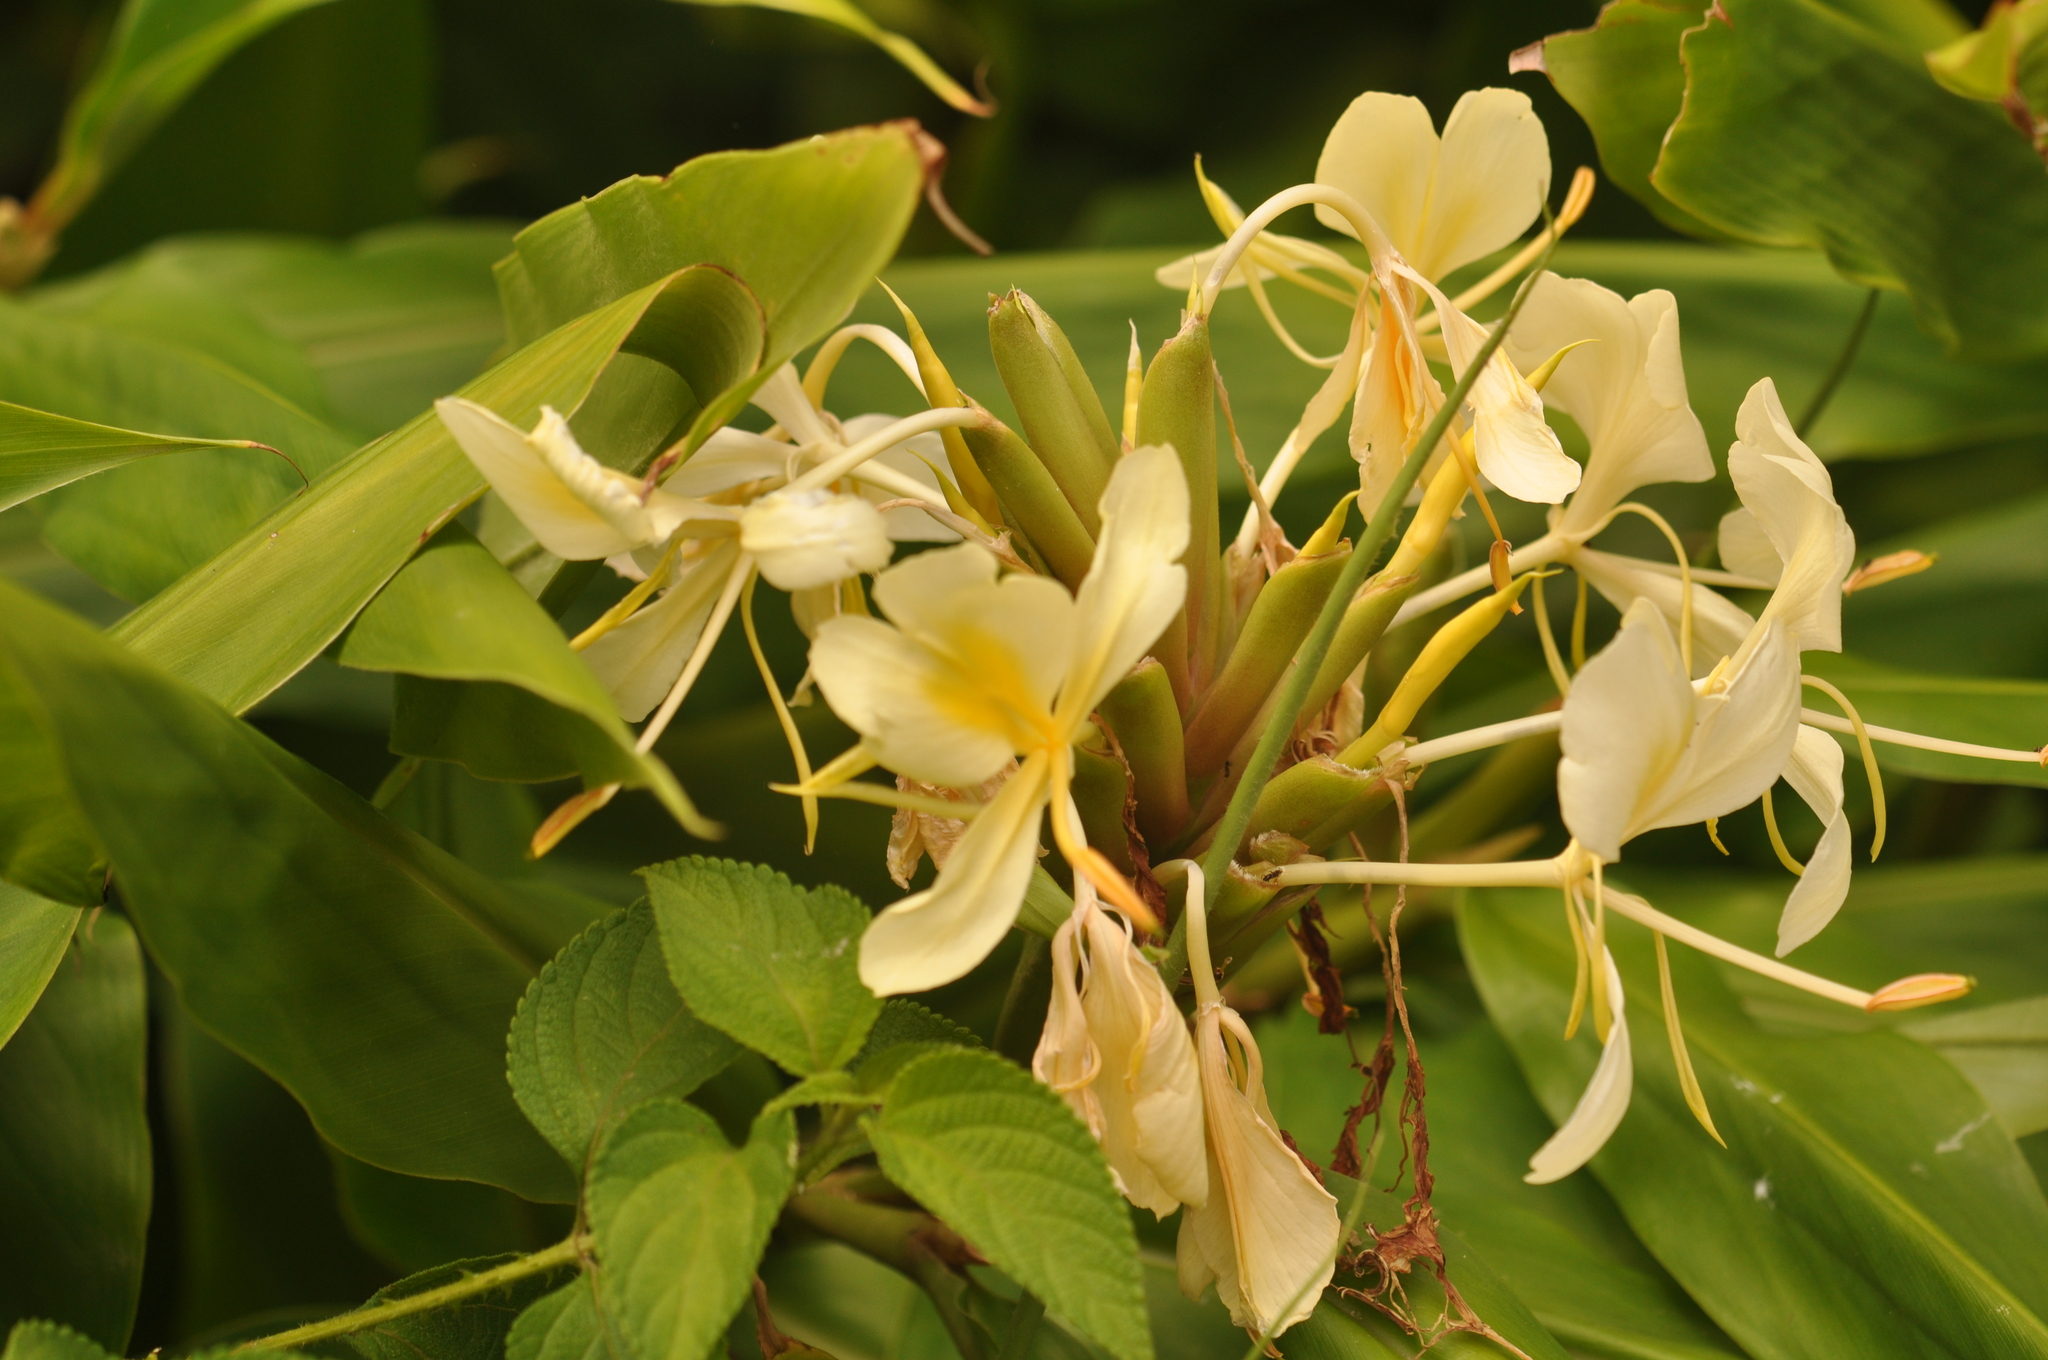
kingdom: Plantae
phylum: Tracheophyta
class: Liliopsida
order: Zingiberales
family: Zingiberaceae
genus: Hedychium
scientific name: Hedychium flavescens
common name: Yellow ginger
